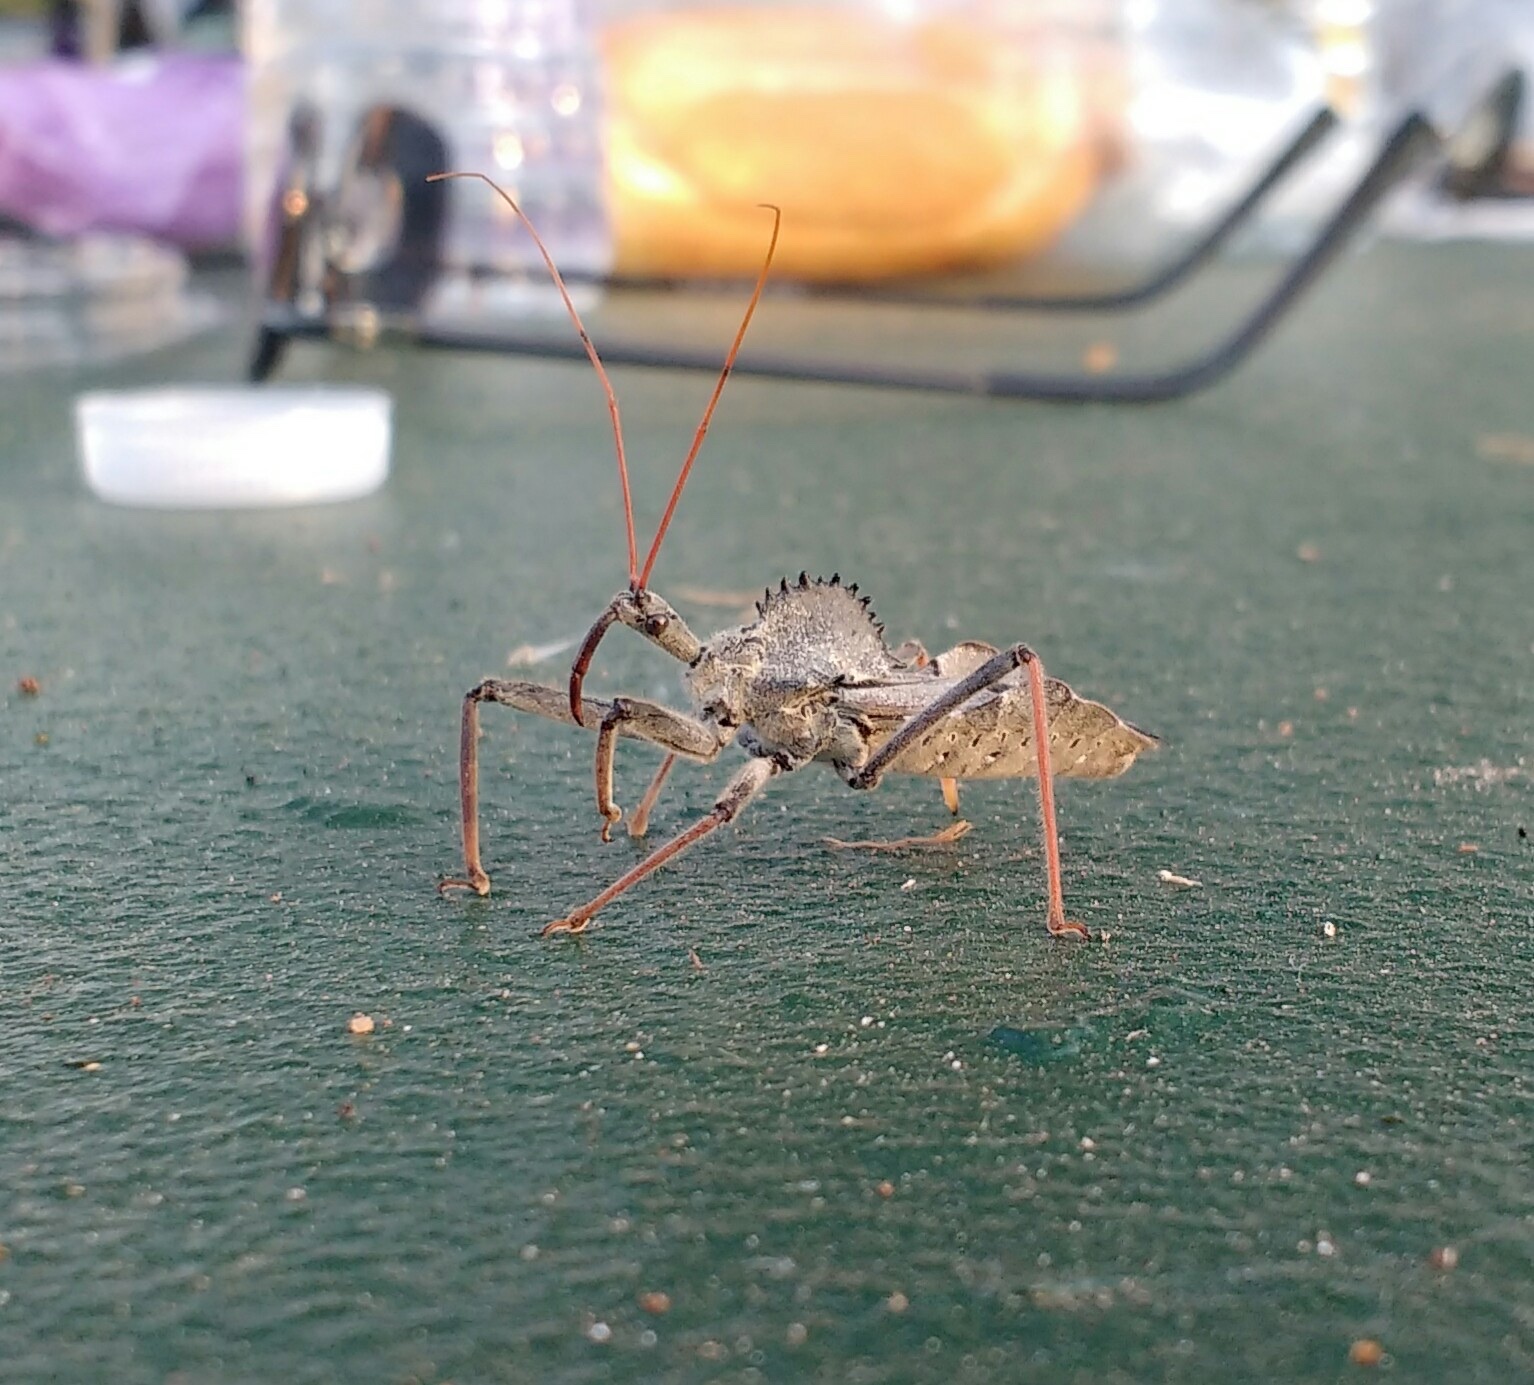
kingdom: Animalia
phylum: Arthropoda
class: Insecta
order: Hemiptera
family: Reduviidae
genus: Arilus
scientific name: Arilus cristatus
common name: North american wheel bug
